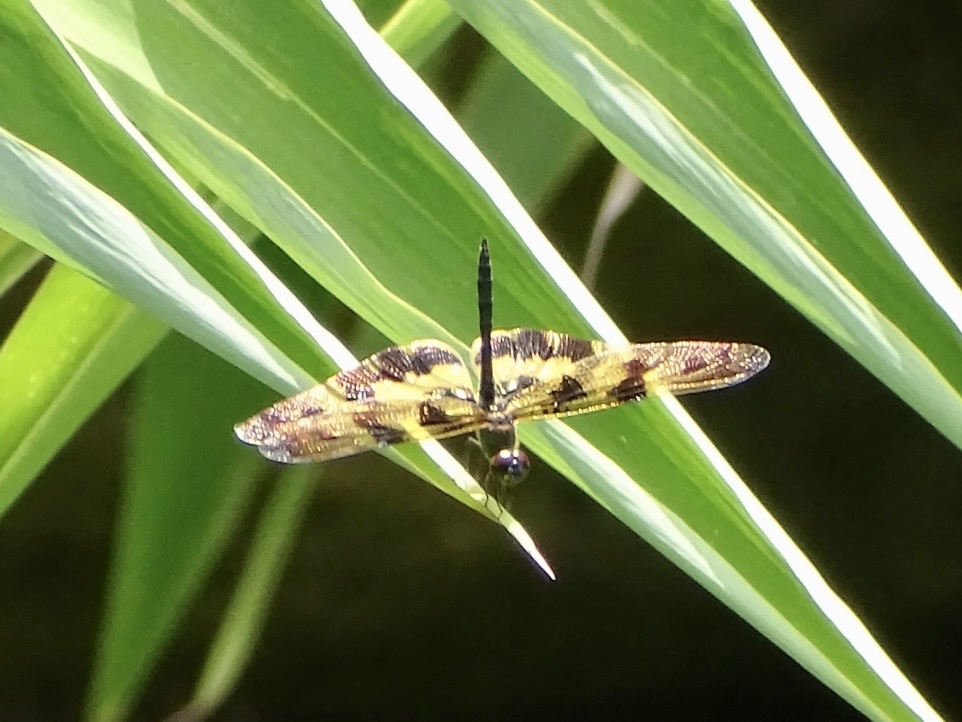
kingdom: Animalia
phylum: Arthropoda
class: Insecta
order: Odonata
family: Libellulidae
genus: Rhyothemis
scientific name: Rhyothemis variegata
